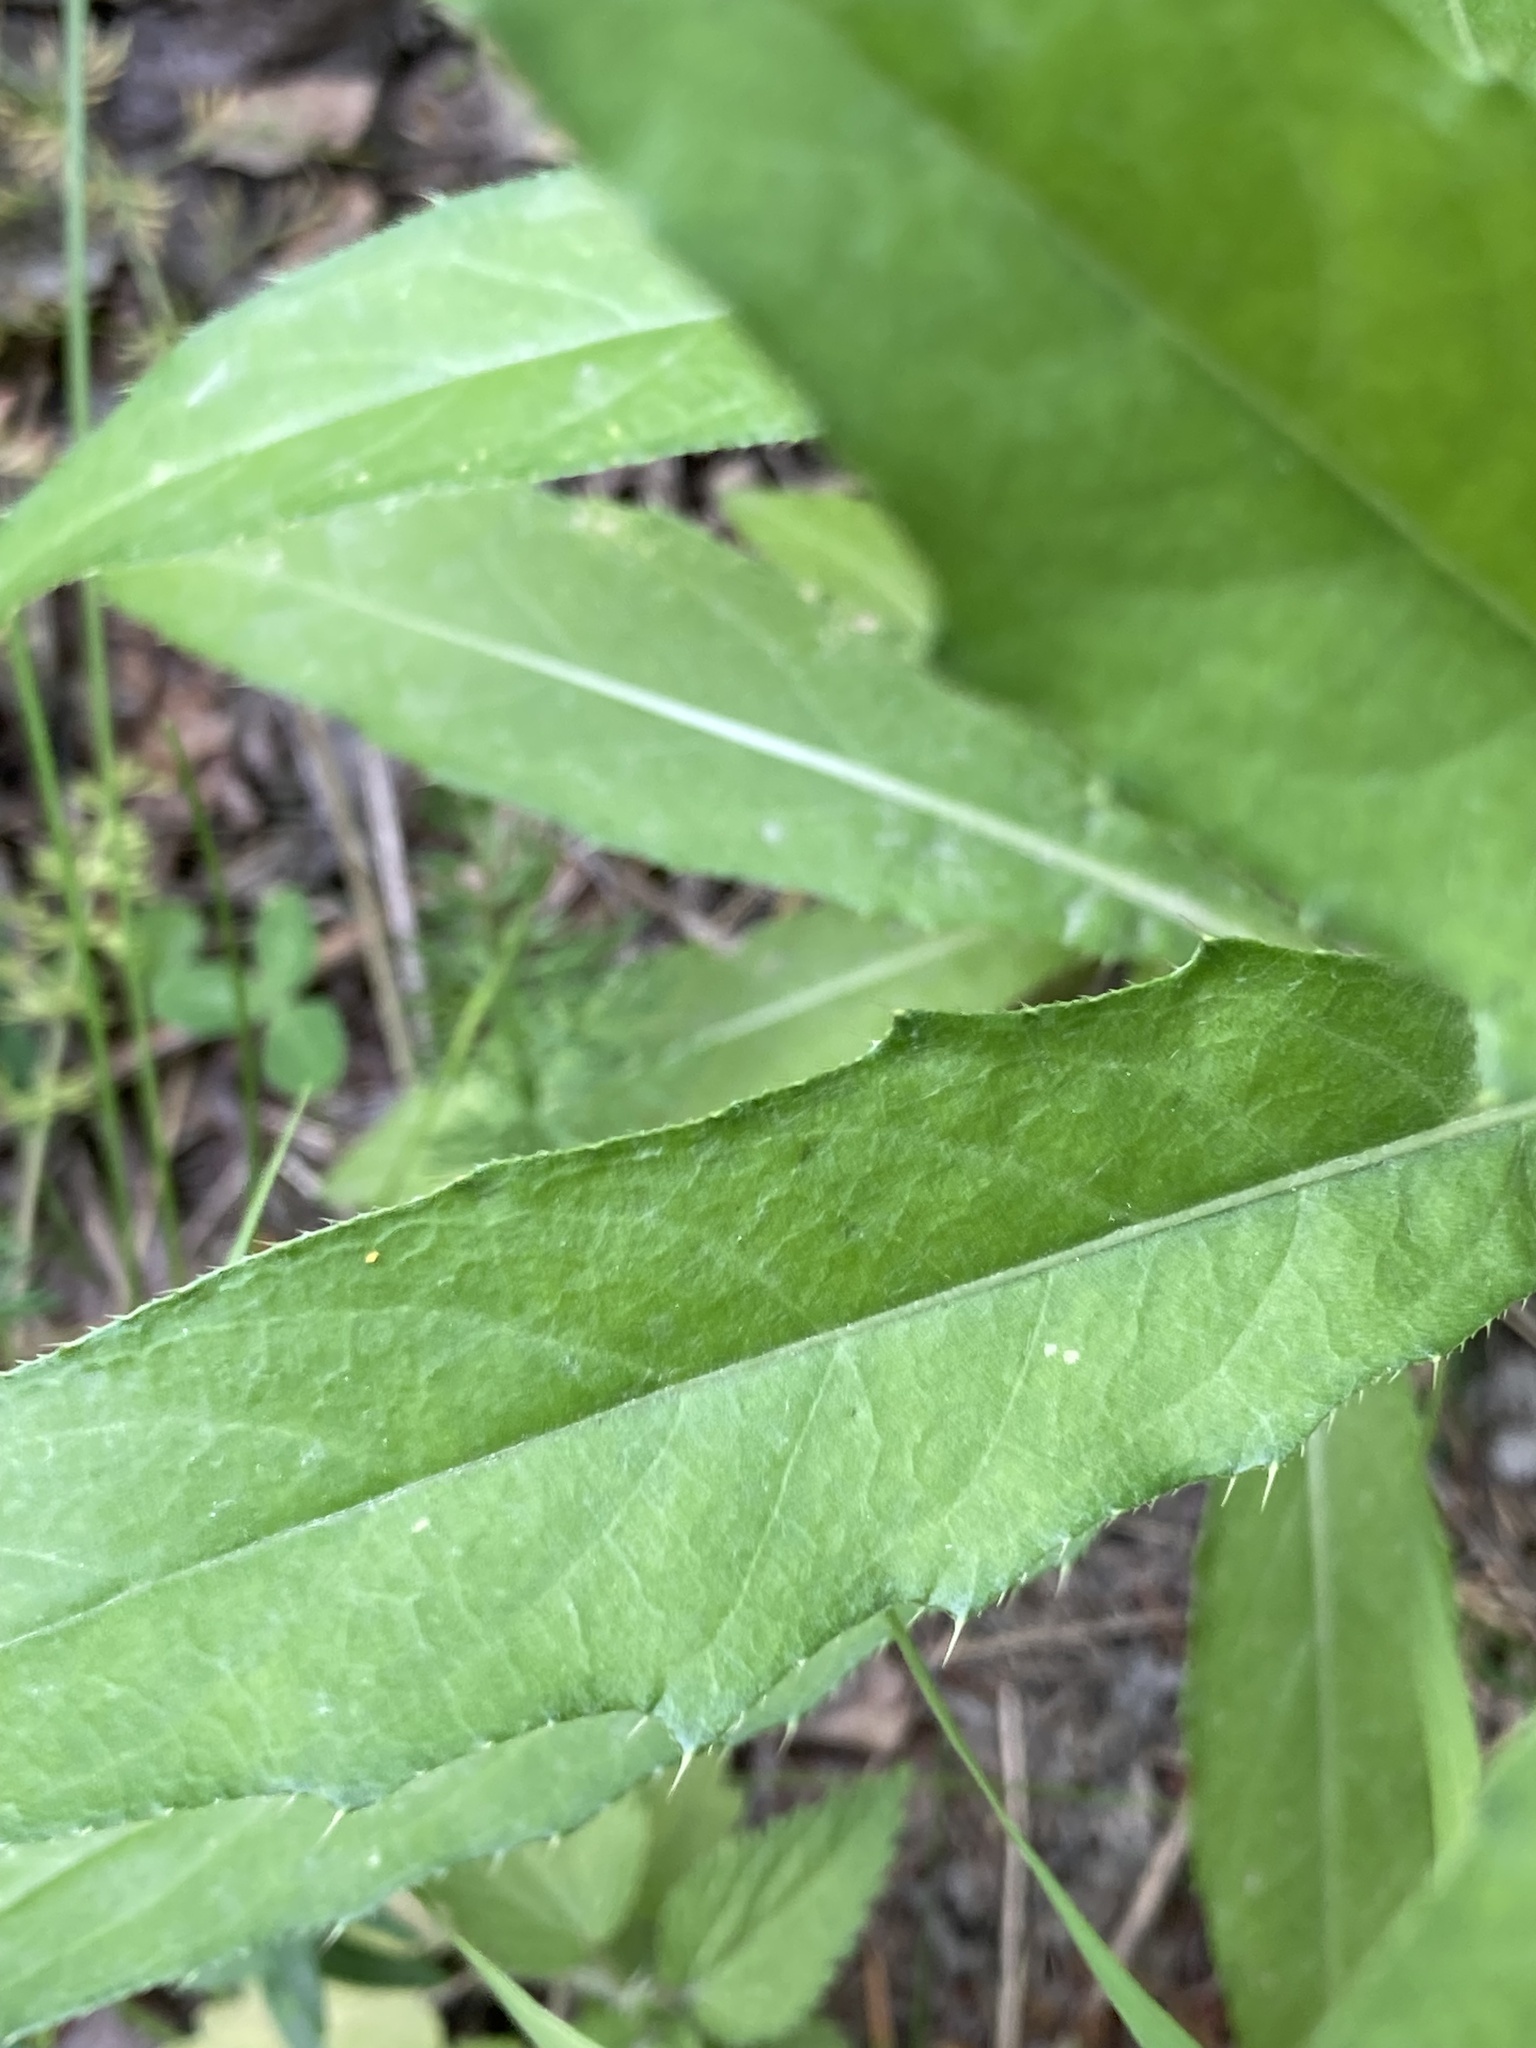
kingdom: Plantae
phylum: Tracheophyta
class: Magnoliopsida
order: Asterales
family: Asteraceae
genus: Cirsium
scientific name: Cirsium arvense
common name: Creeping thistle
